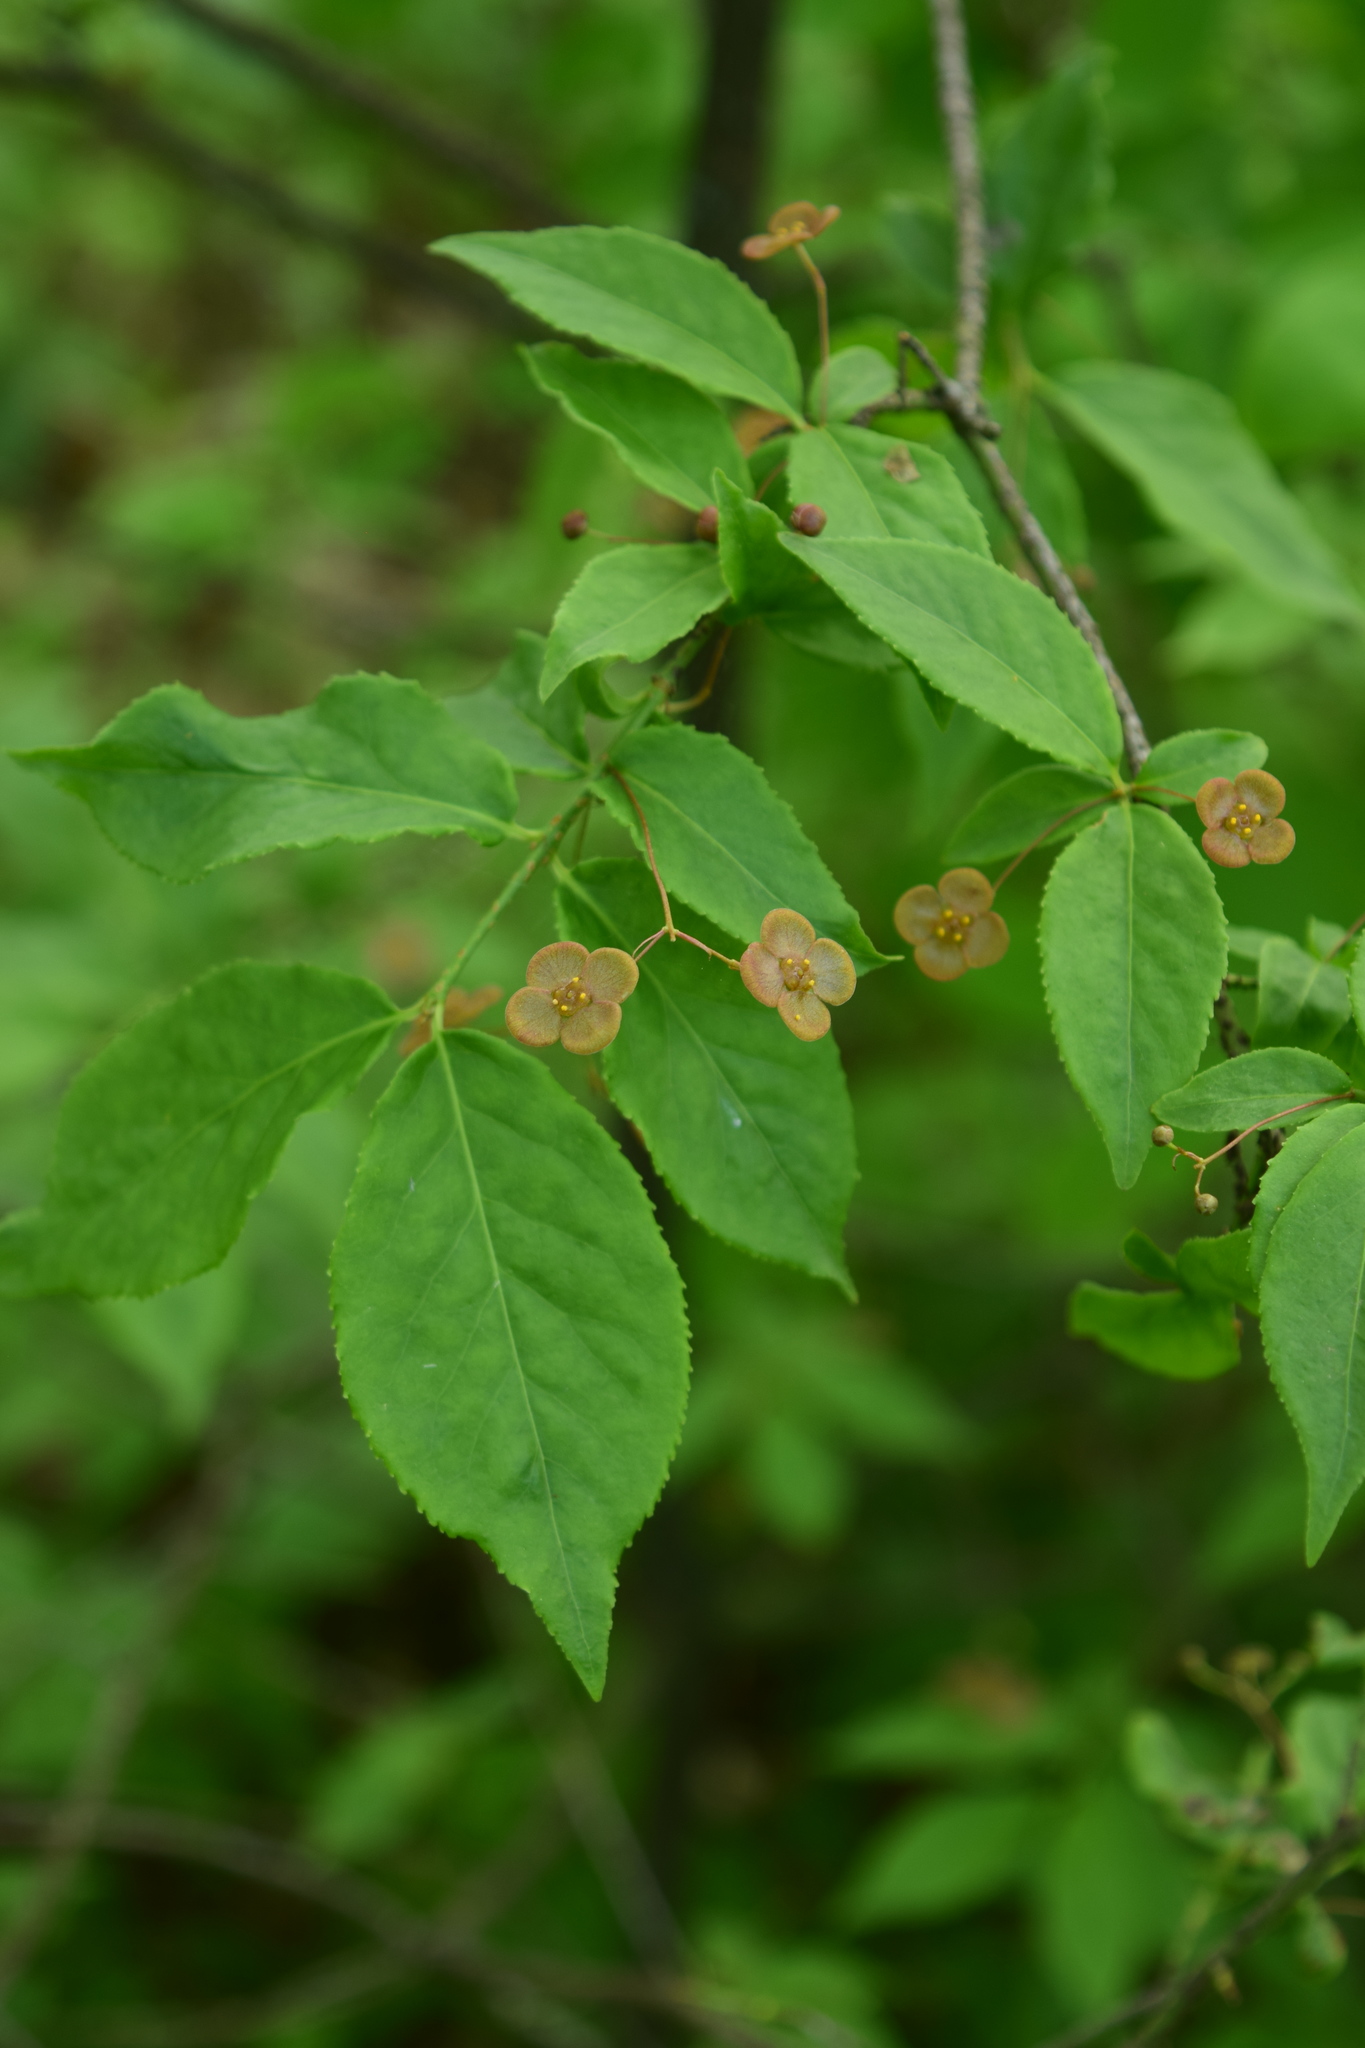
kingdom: Plantae
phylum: Tracheophyta
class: Magnoliopsida
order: Celastrales
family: Celastraceae
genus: Euonymus
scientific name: Euonymus verrucosus
